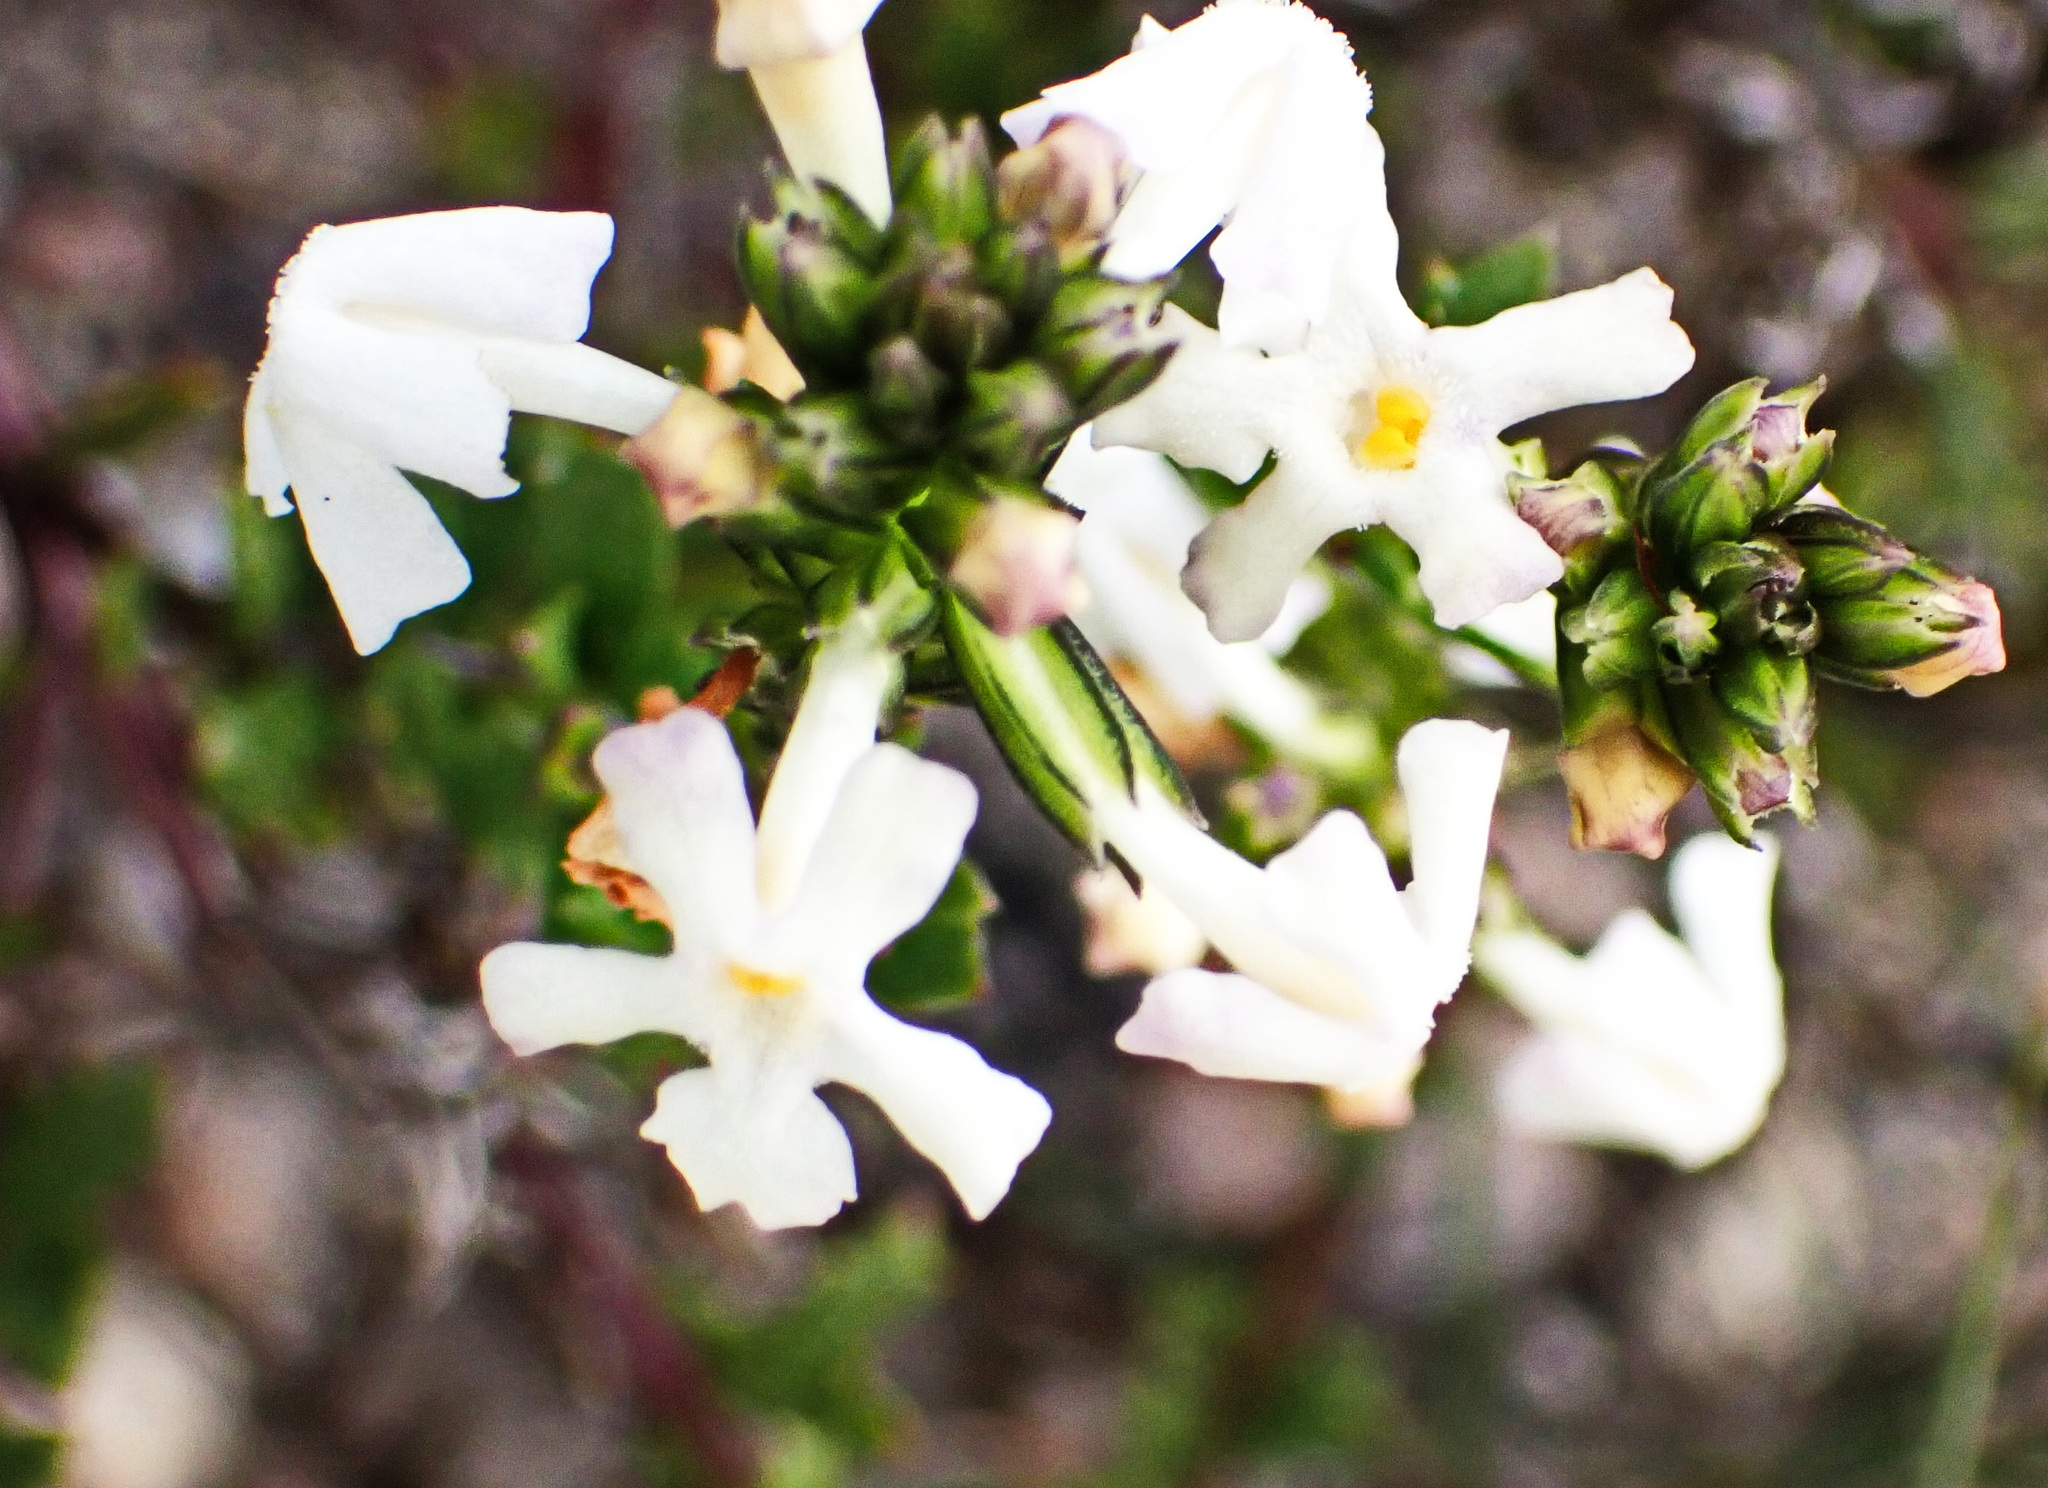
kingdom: Plantae
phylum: Tracheophyta
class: Magnoliopsida
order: Lamiales
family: Verbenaceae
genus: Chascanum
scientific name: Chascanum cernuum
